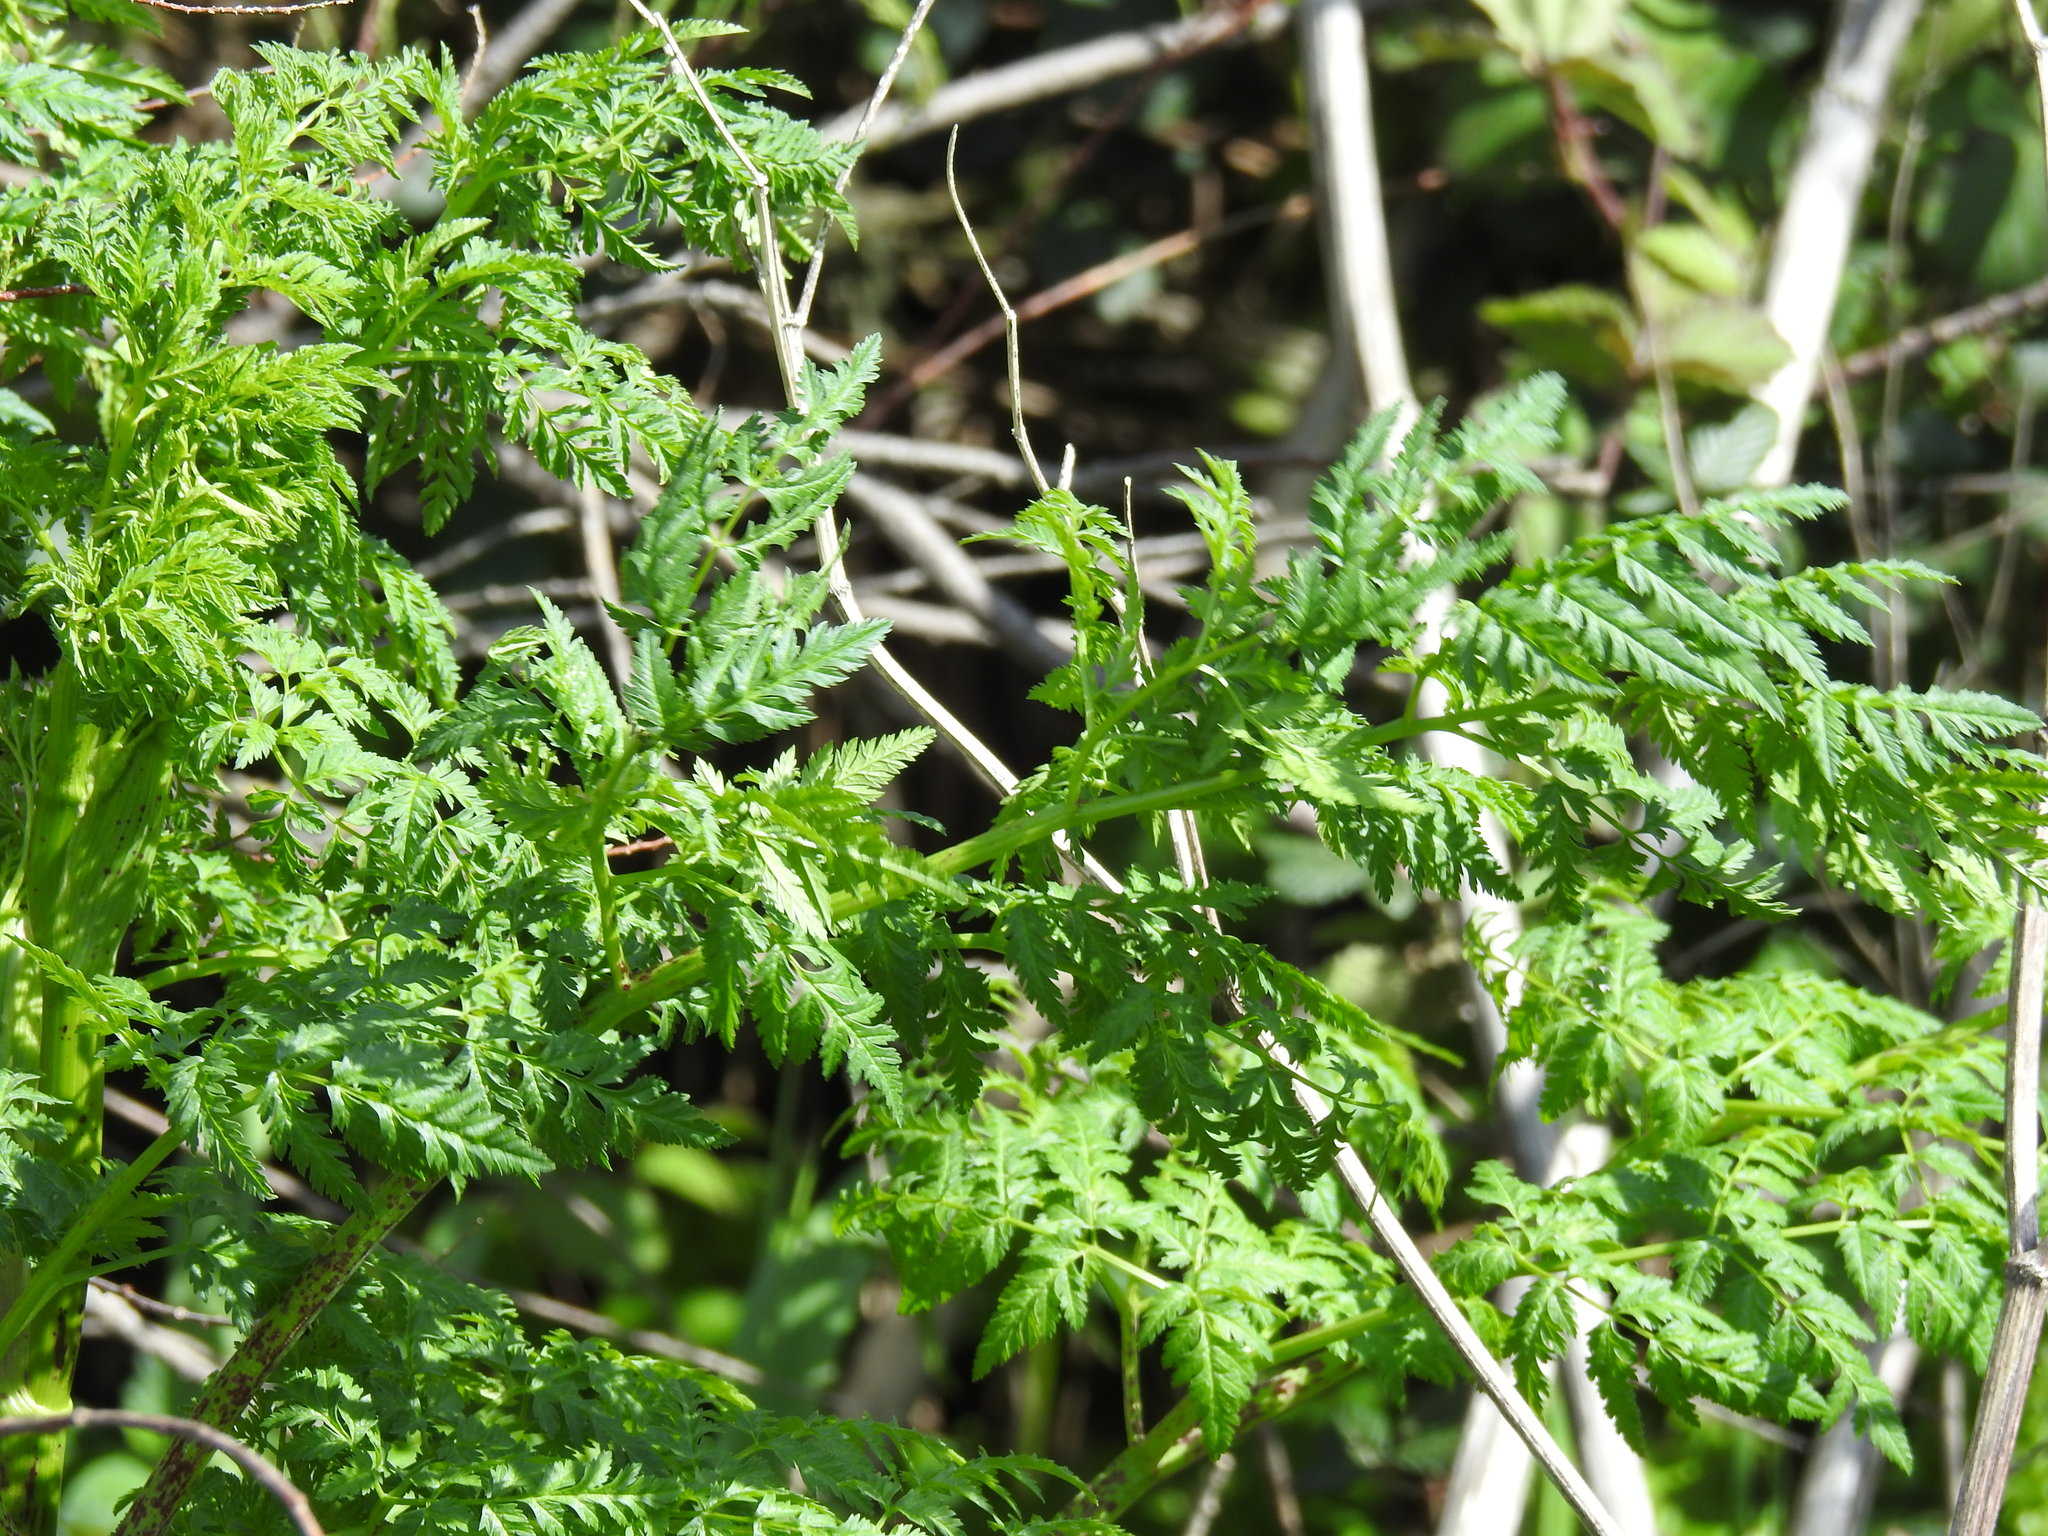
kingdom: Plantae
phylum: Tracheophyta
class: Magnoliopsida
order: Apiales
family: Apiaceae
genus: Conium
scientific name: Conium maculatum
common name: Hemlock
